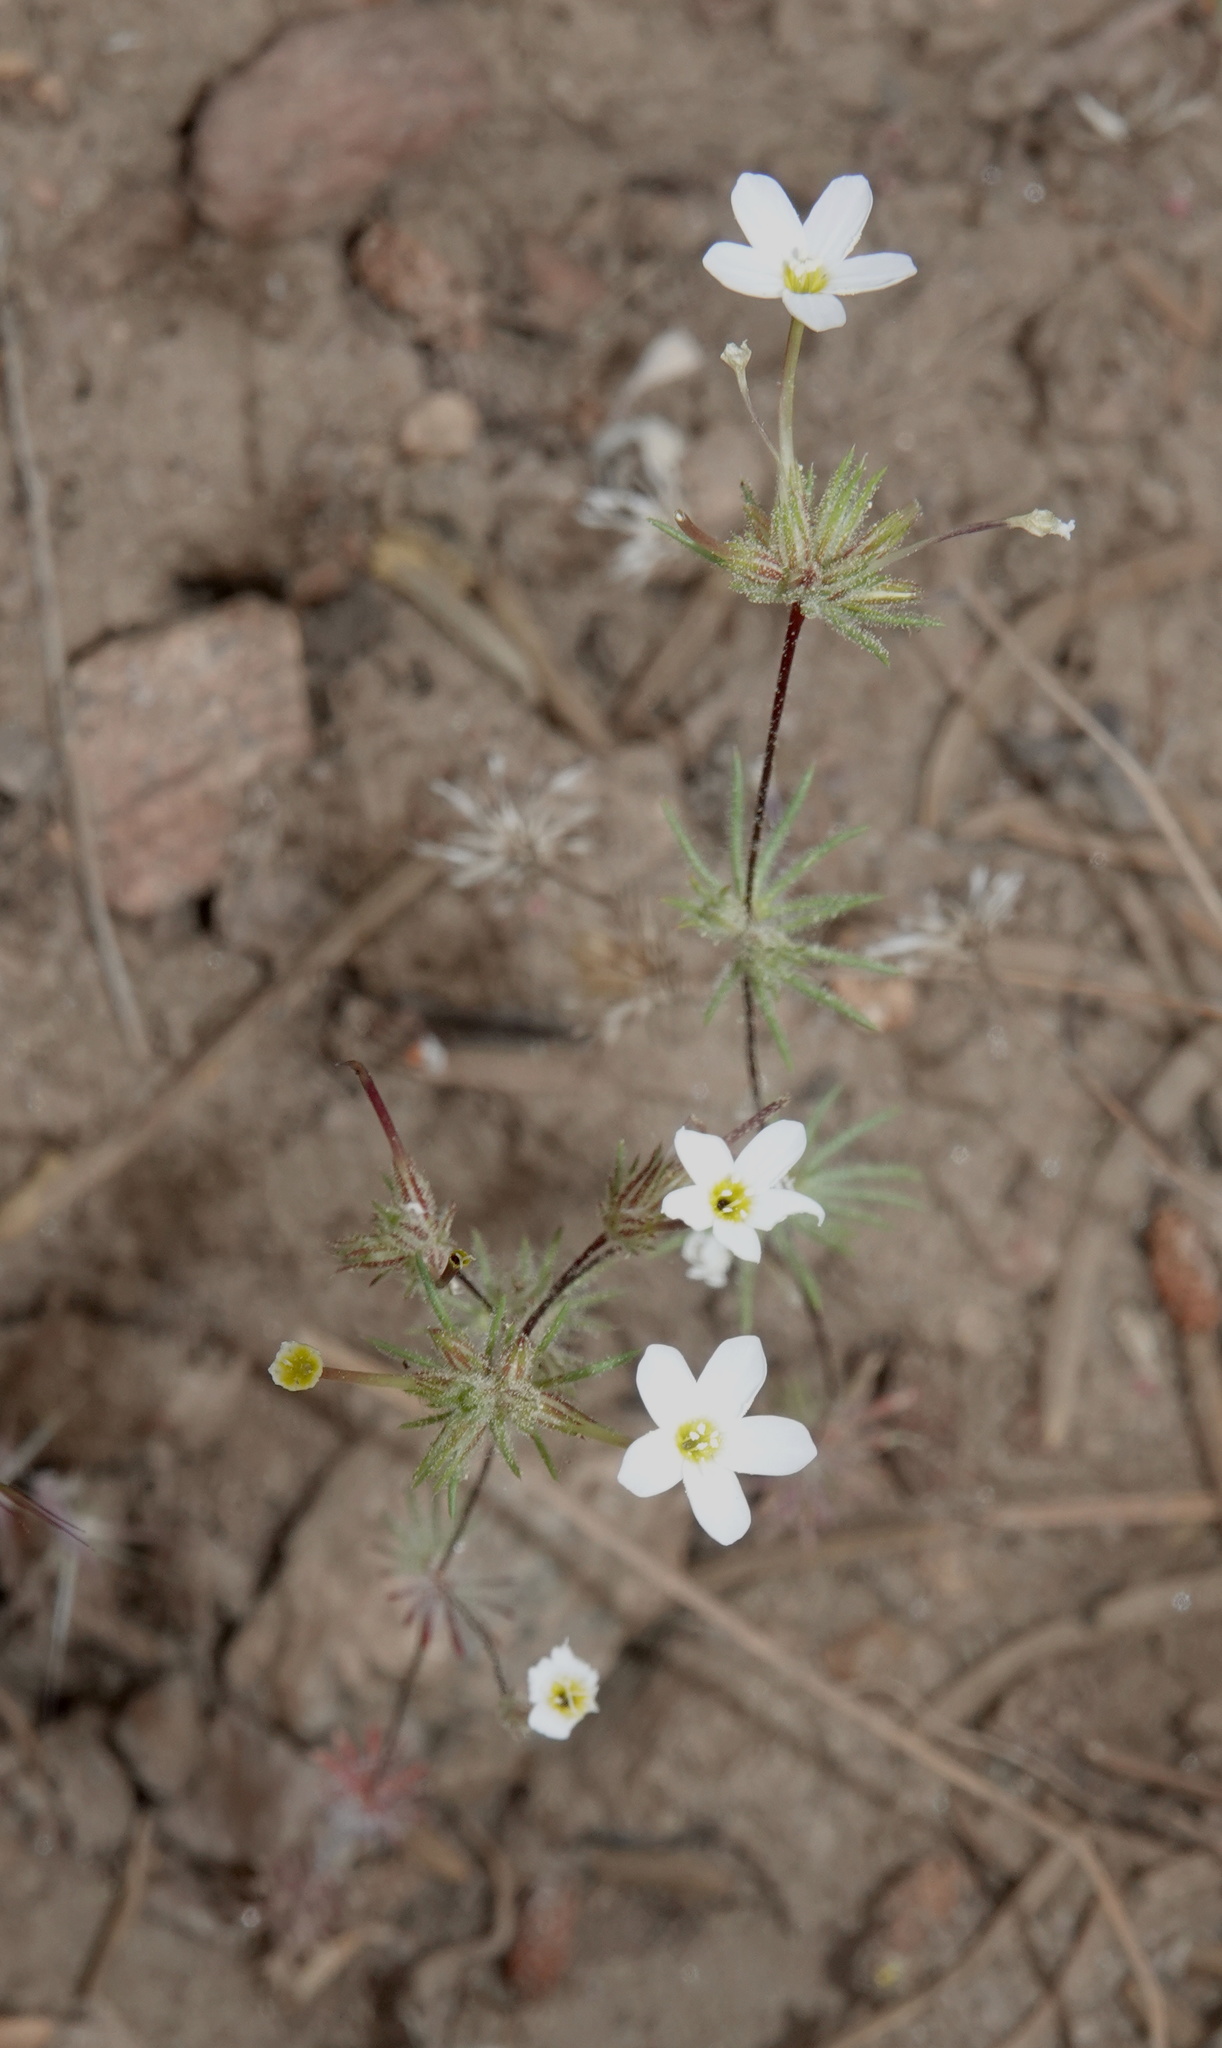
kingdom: Plantae
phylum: Tracheophyta
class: Magnoliopsida
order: Ericales
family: Polemoniaceae
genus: Leptosiphon
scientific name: Leptosiphon breviculus
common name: Mojave linanthus
